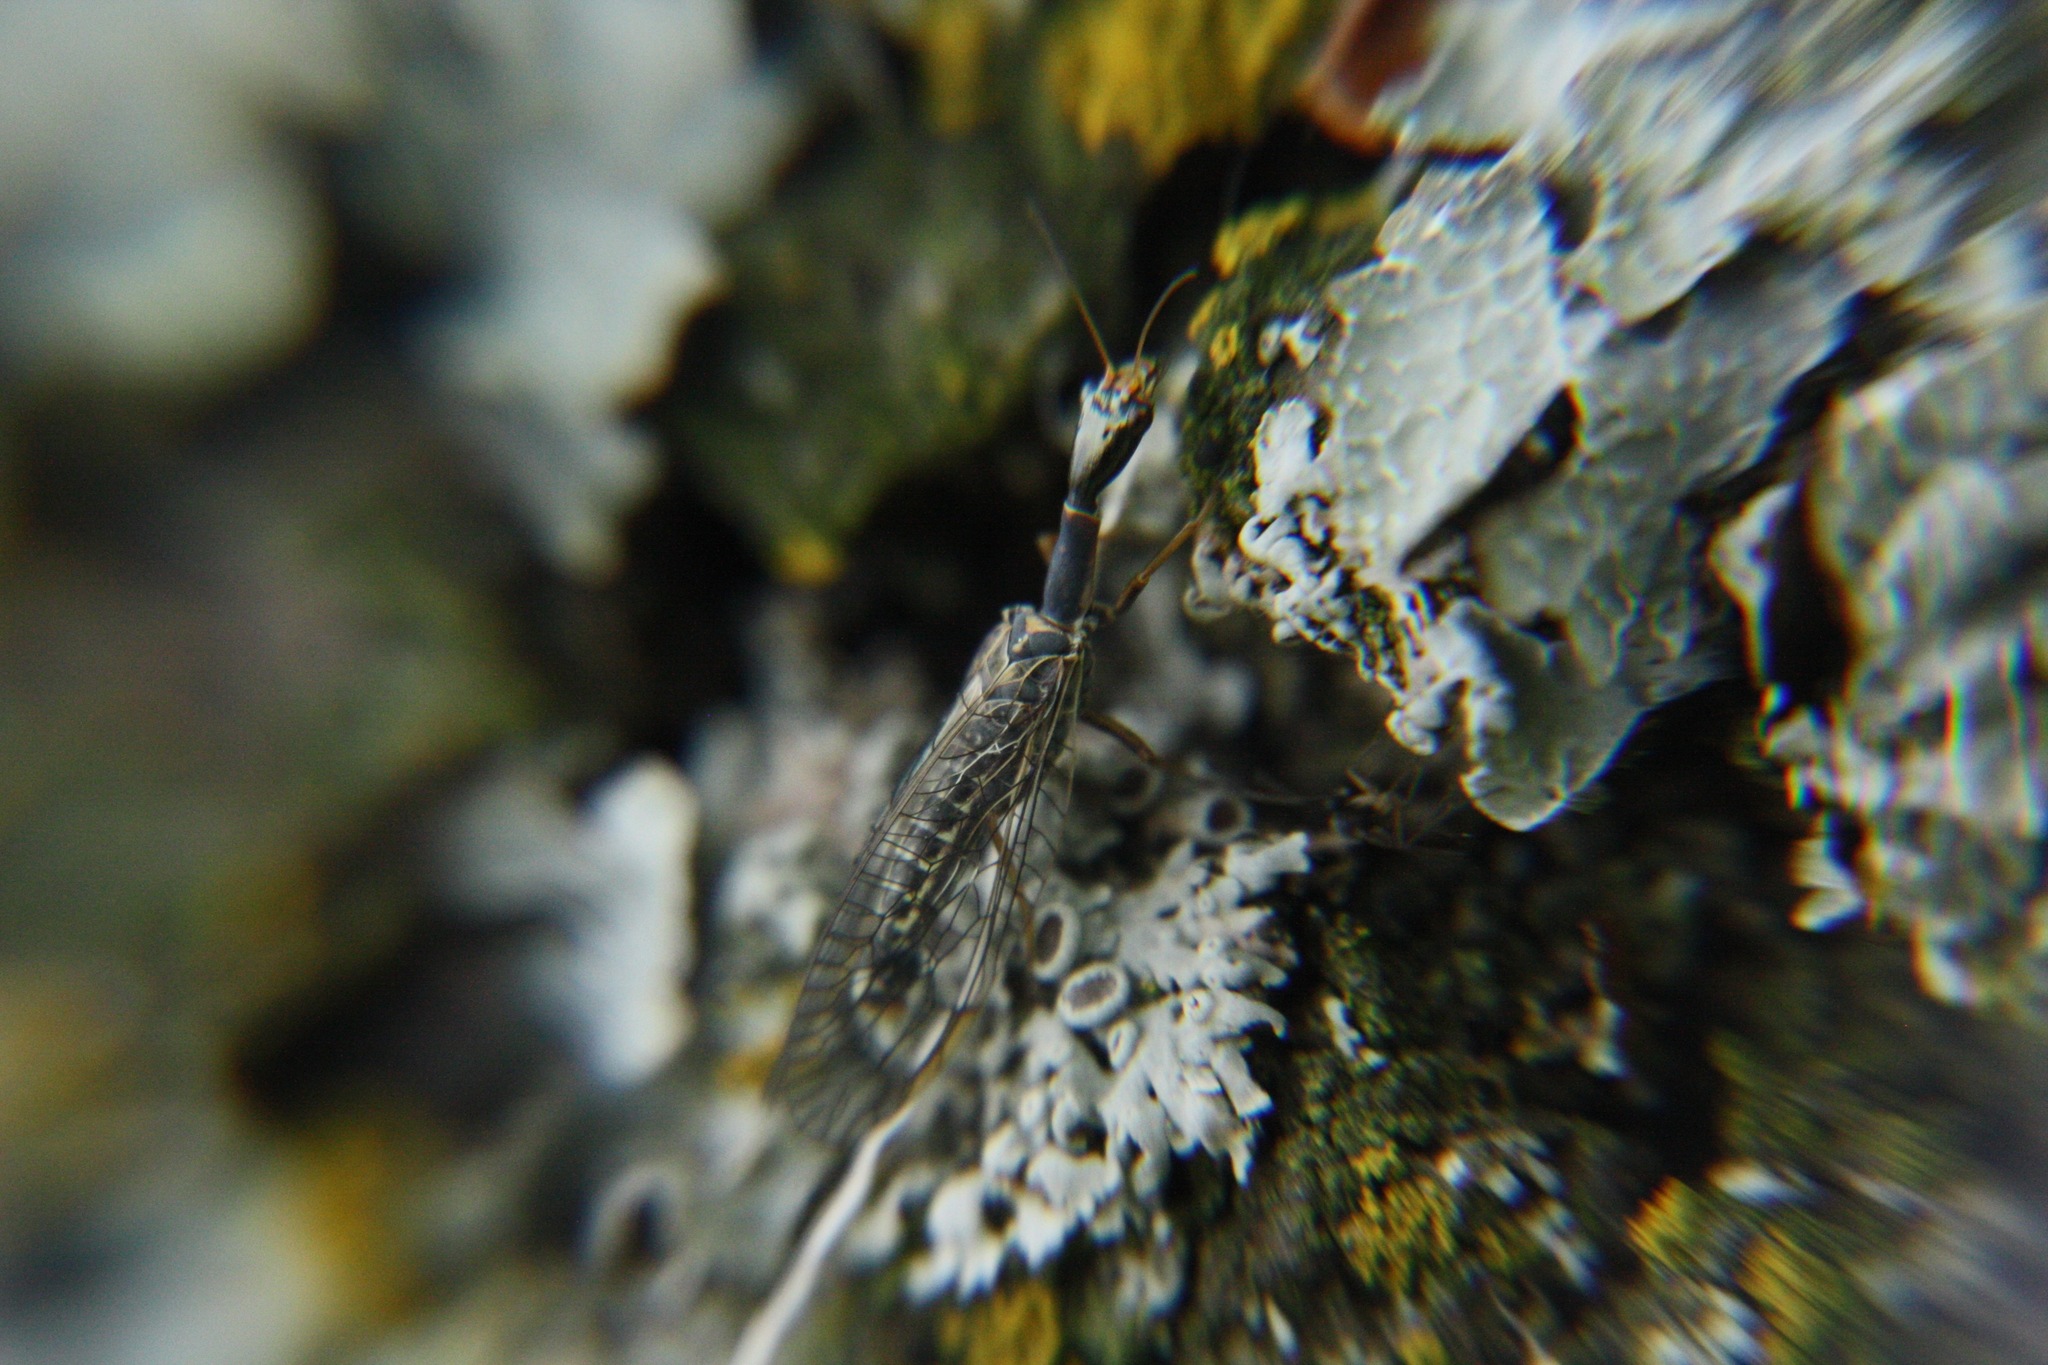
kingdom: Animalia
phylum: Arthropoda
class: Insecta
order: Raphidioptera
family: Raphidiidae
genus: Xanthostigma
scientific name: Xanthostigma xanthostigma
